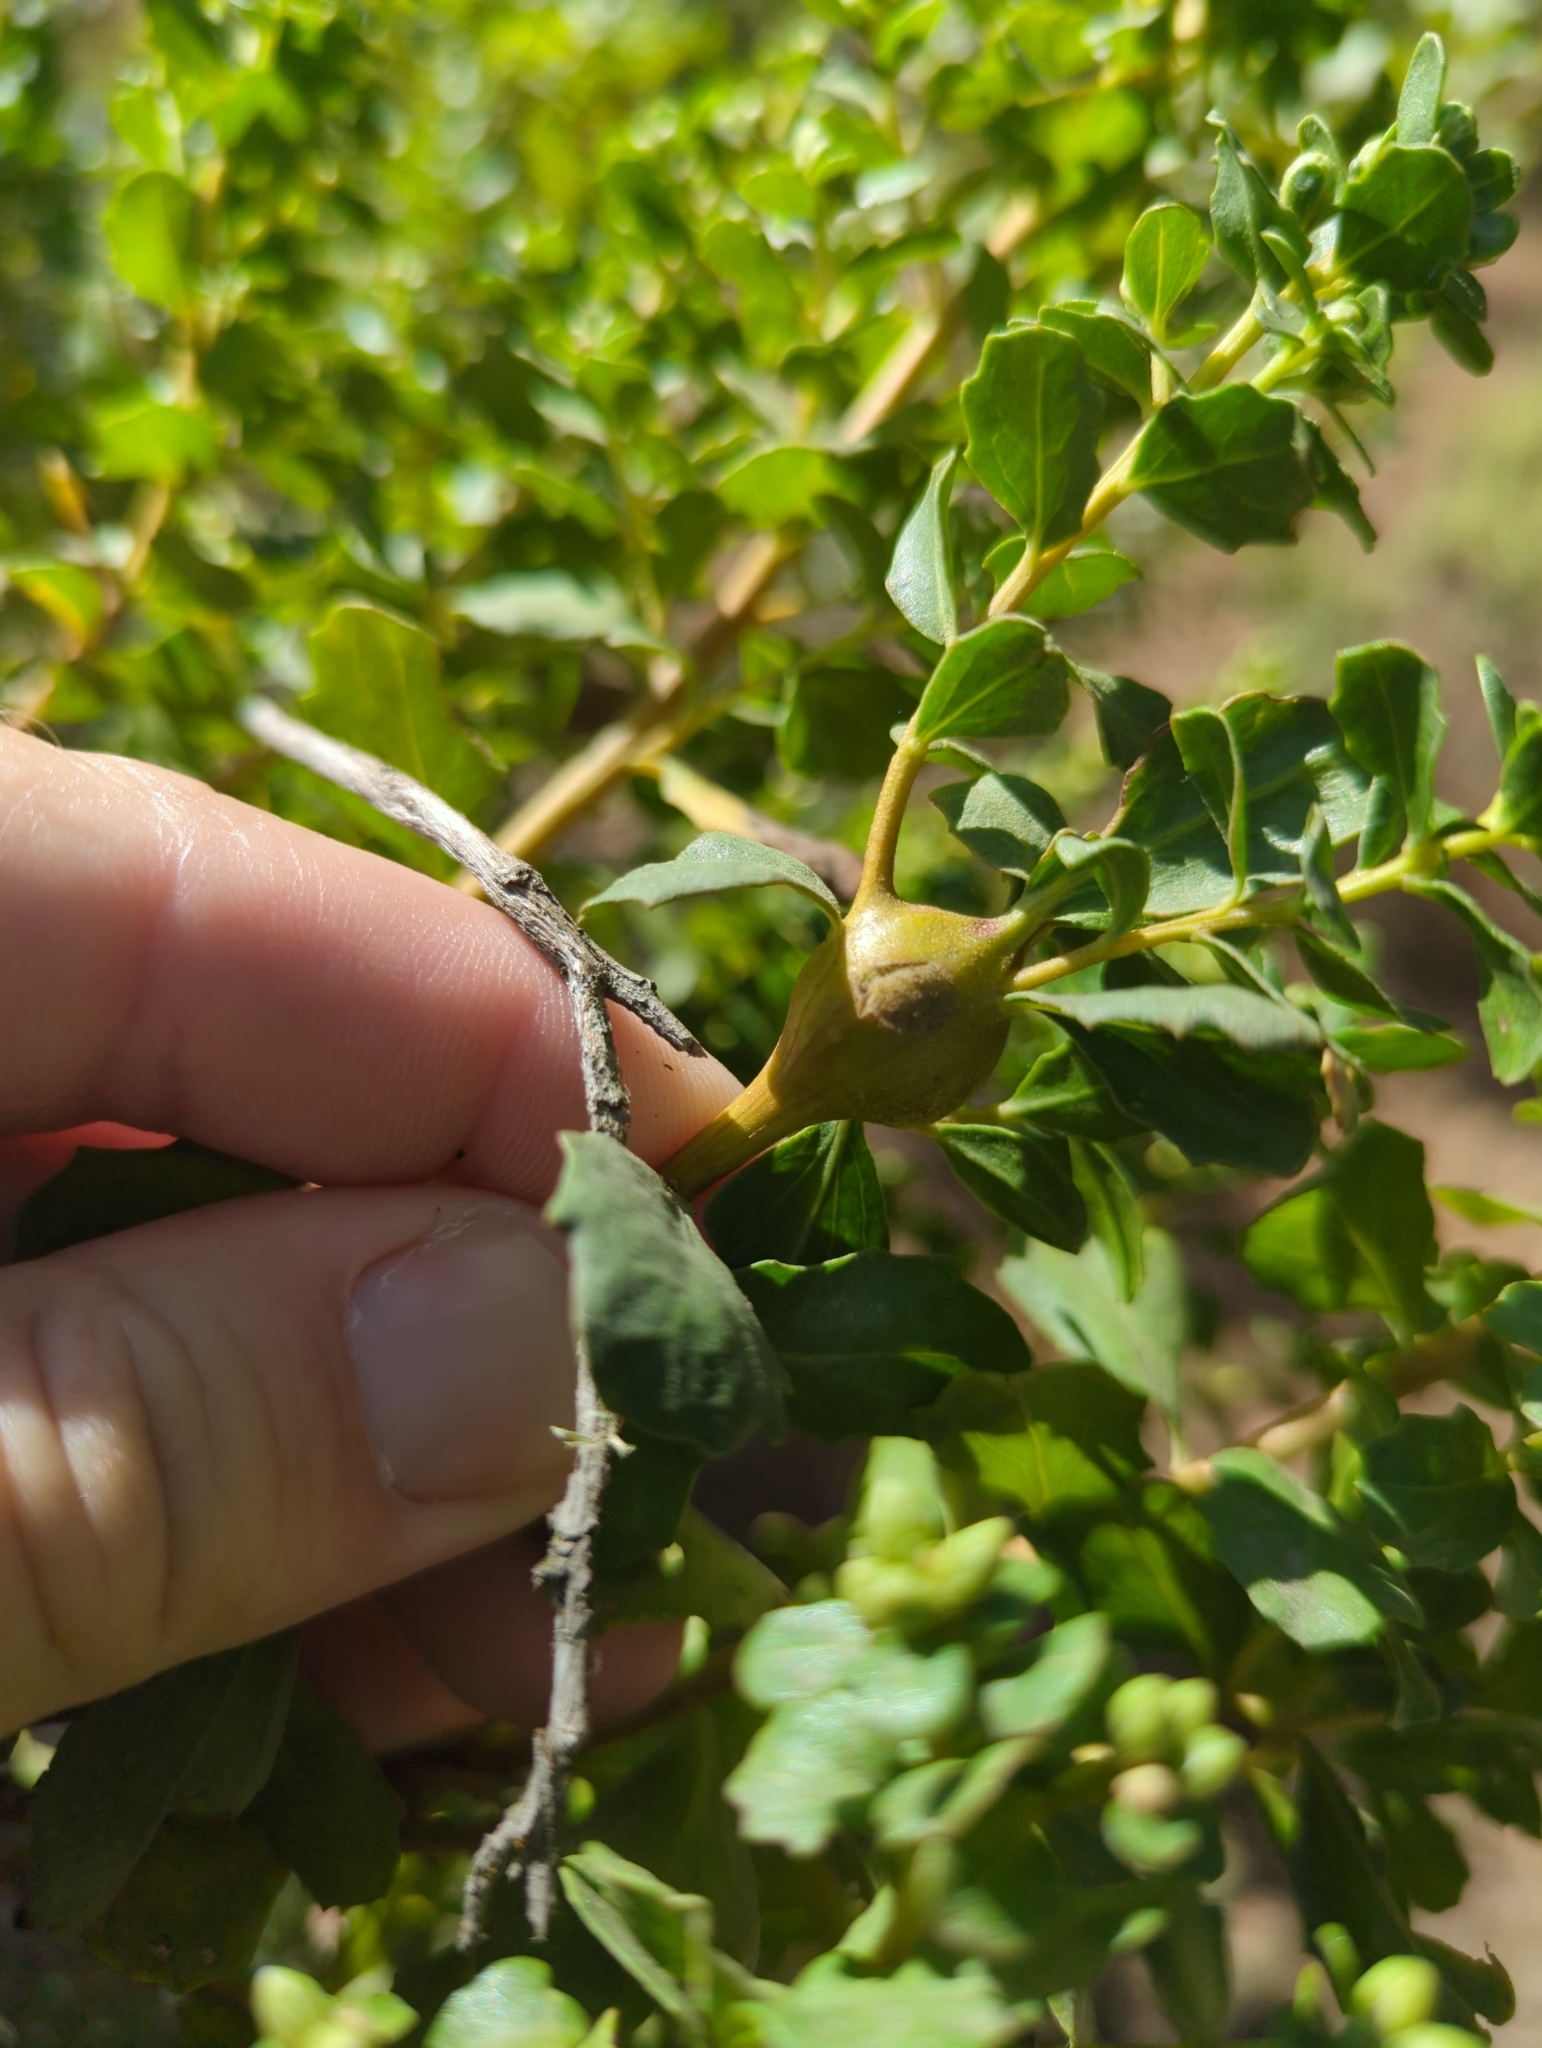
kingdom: Animalia
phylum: Arthropoda
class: Insecta
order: Lepidoptera
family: Gelechiidae
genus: Gnorimoschema
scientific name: Gnorimoschema baccharisella
